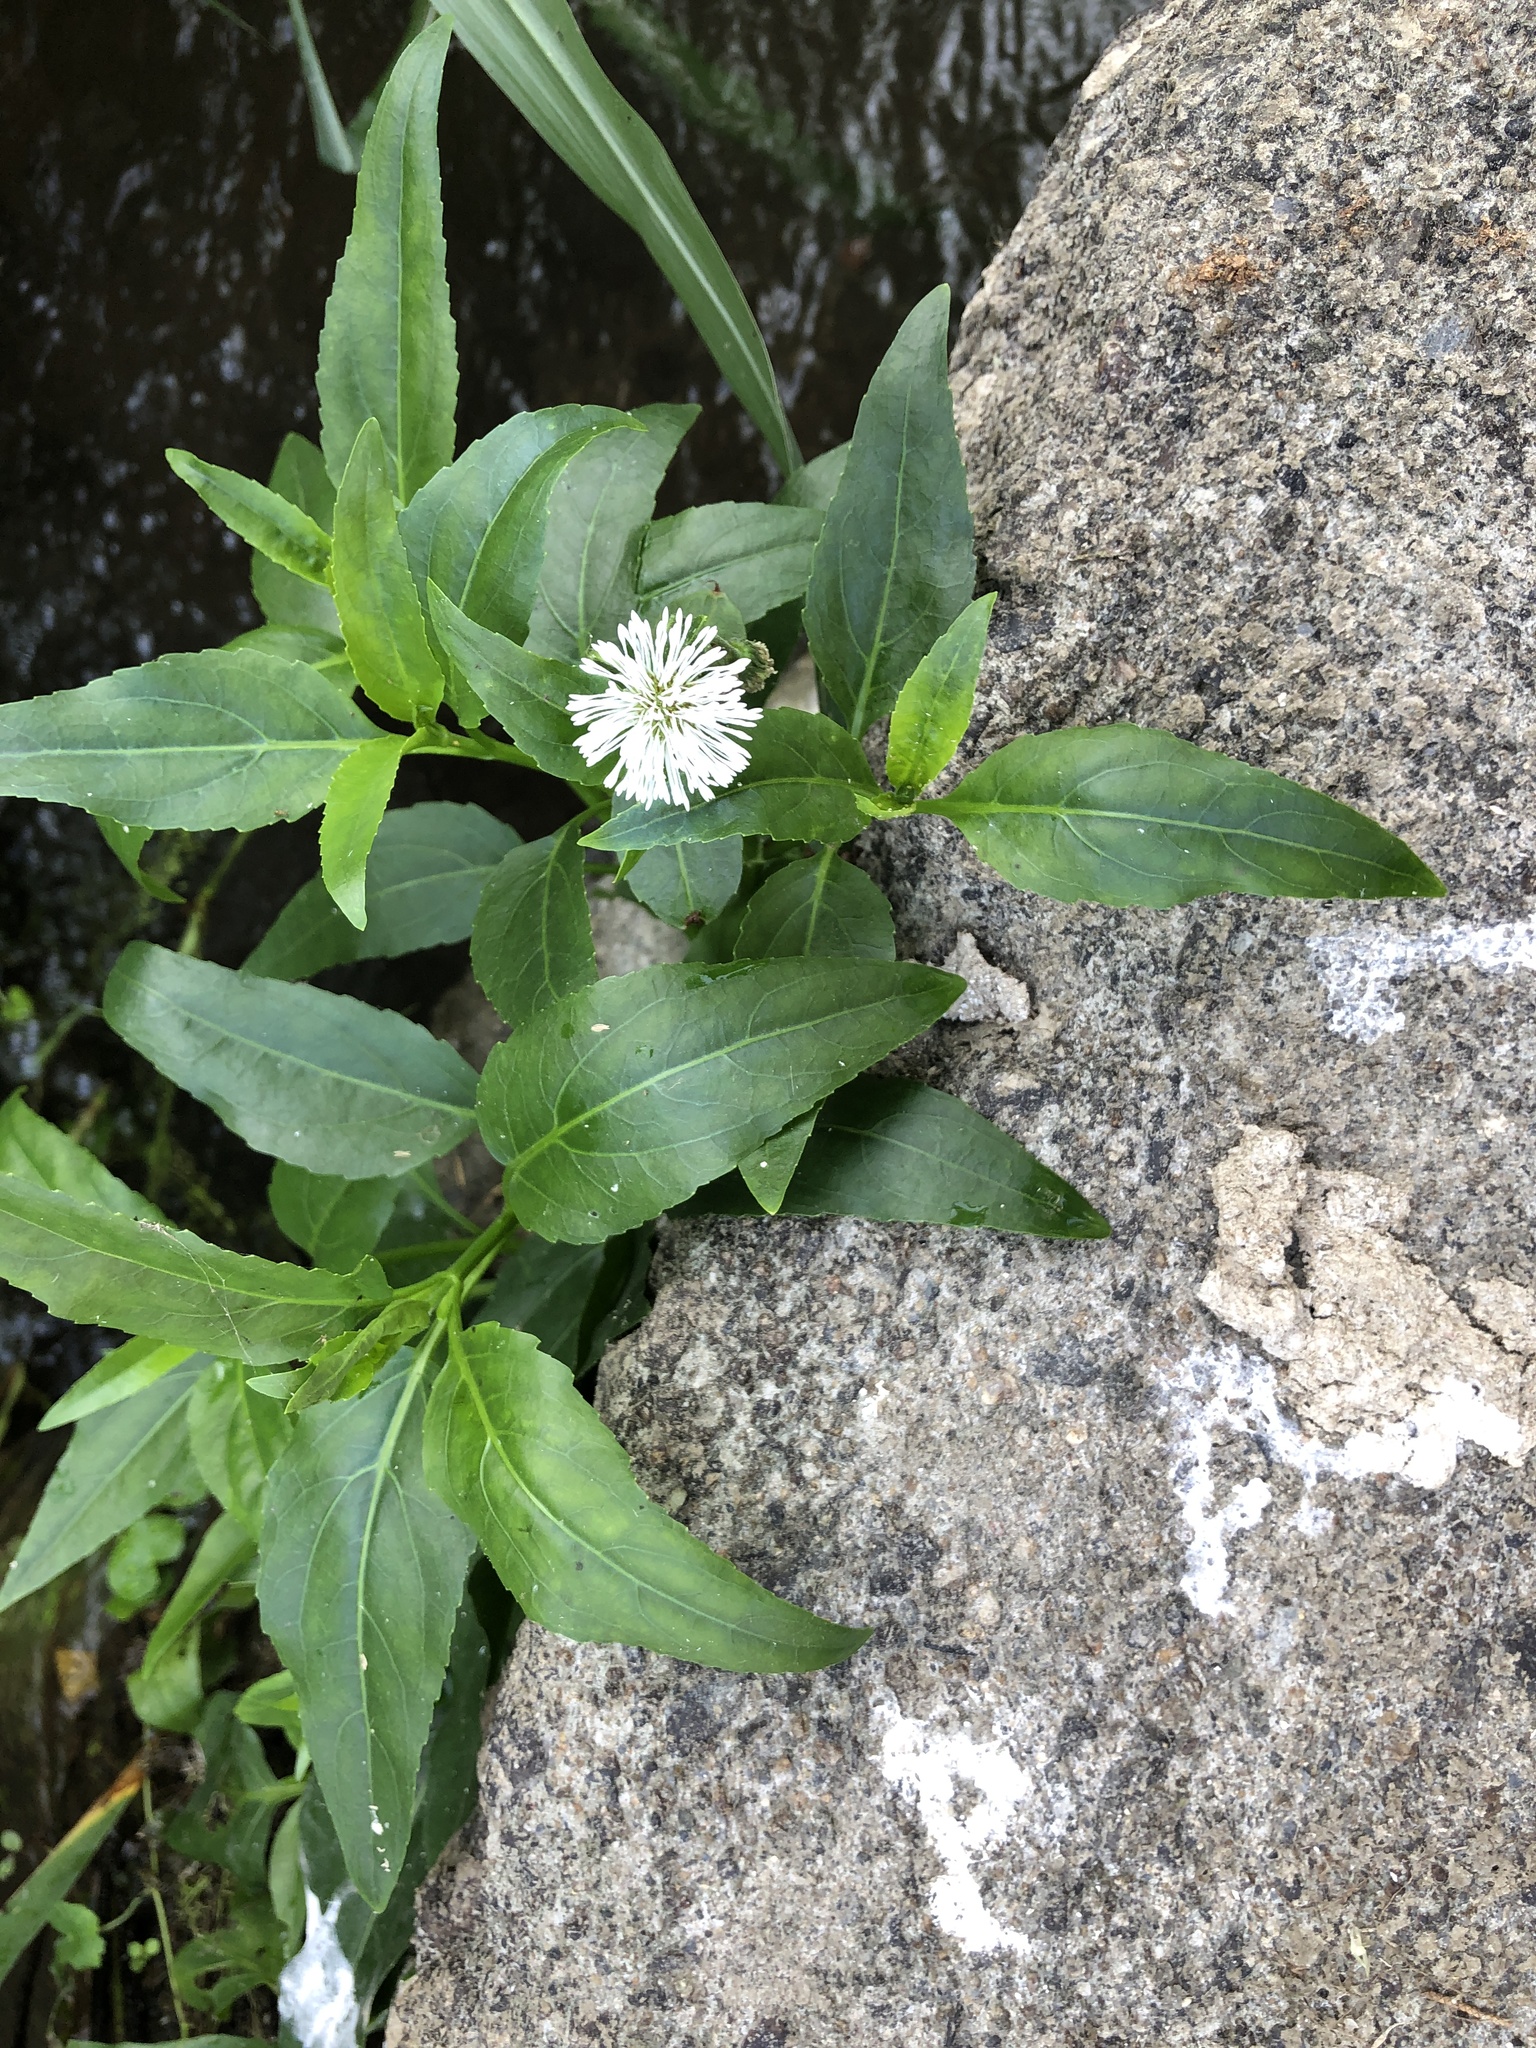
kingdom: Plantae
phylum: Tracheophyta
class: Magnoliopsida
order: Asterales
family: Asteraceae
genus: Gymnocoronis
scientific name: Gymnocoronis spilanthoides
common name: Senegal teaplant
